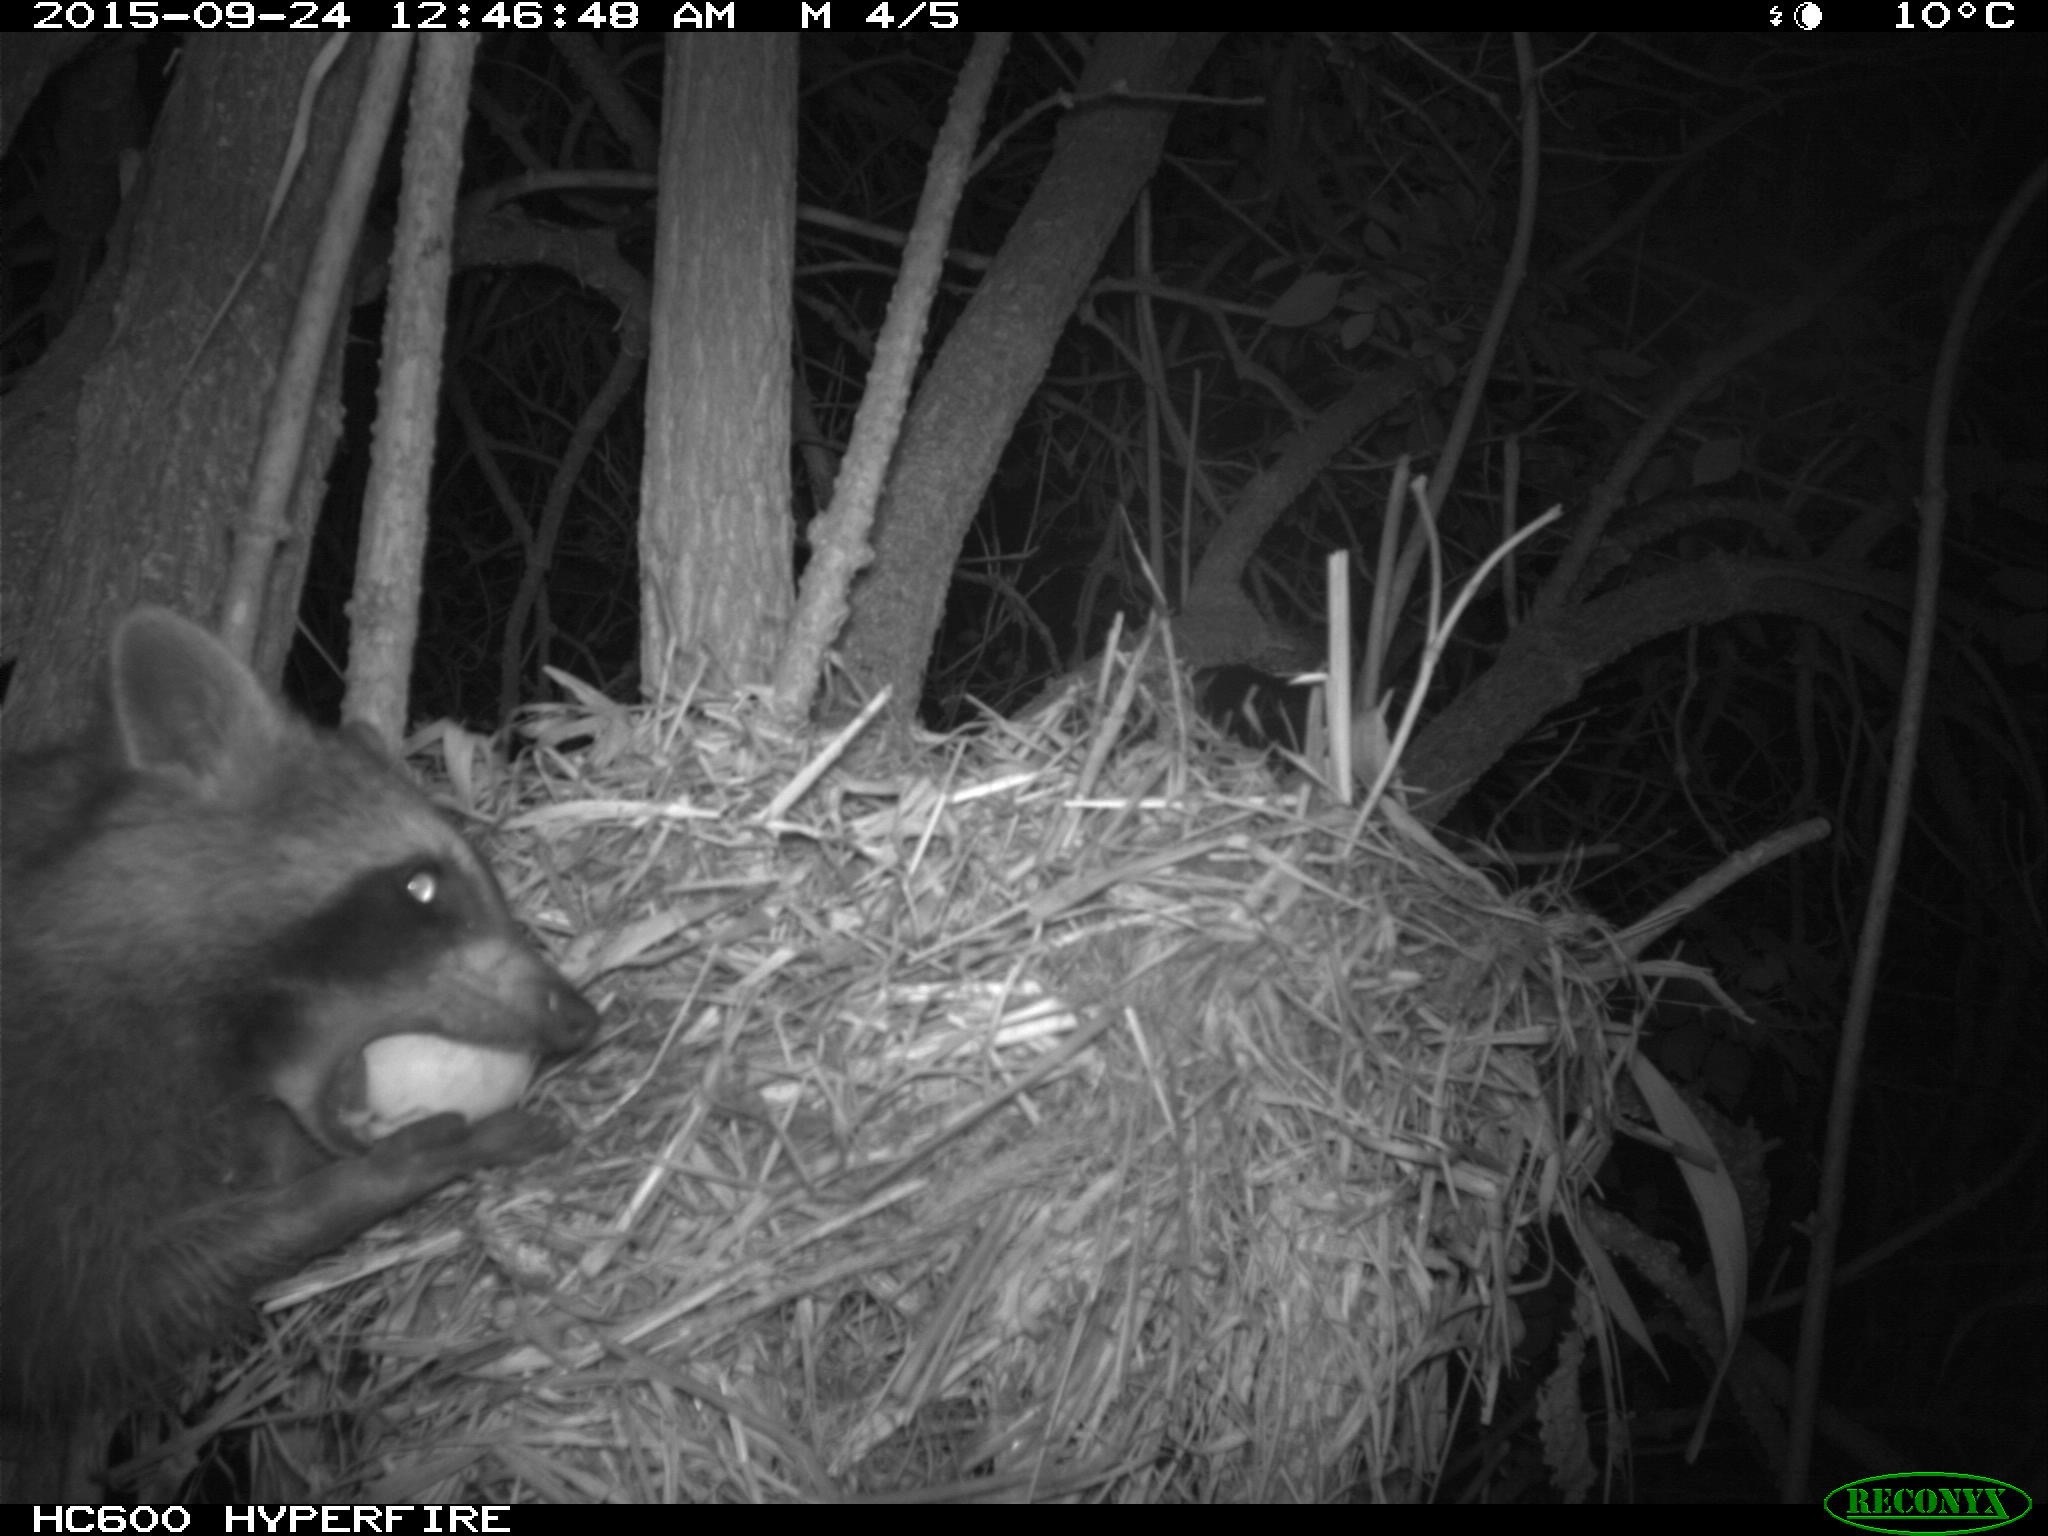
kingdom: Animalia
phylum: Chordata
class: Mammalia
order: Carnivora
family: Procyonidae
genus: Procyon
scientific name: Procyon lotor
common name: Raccoon
